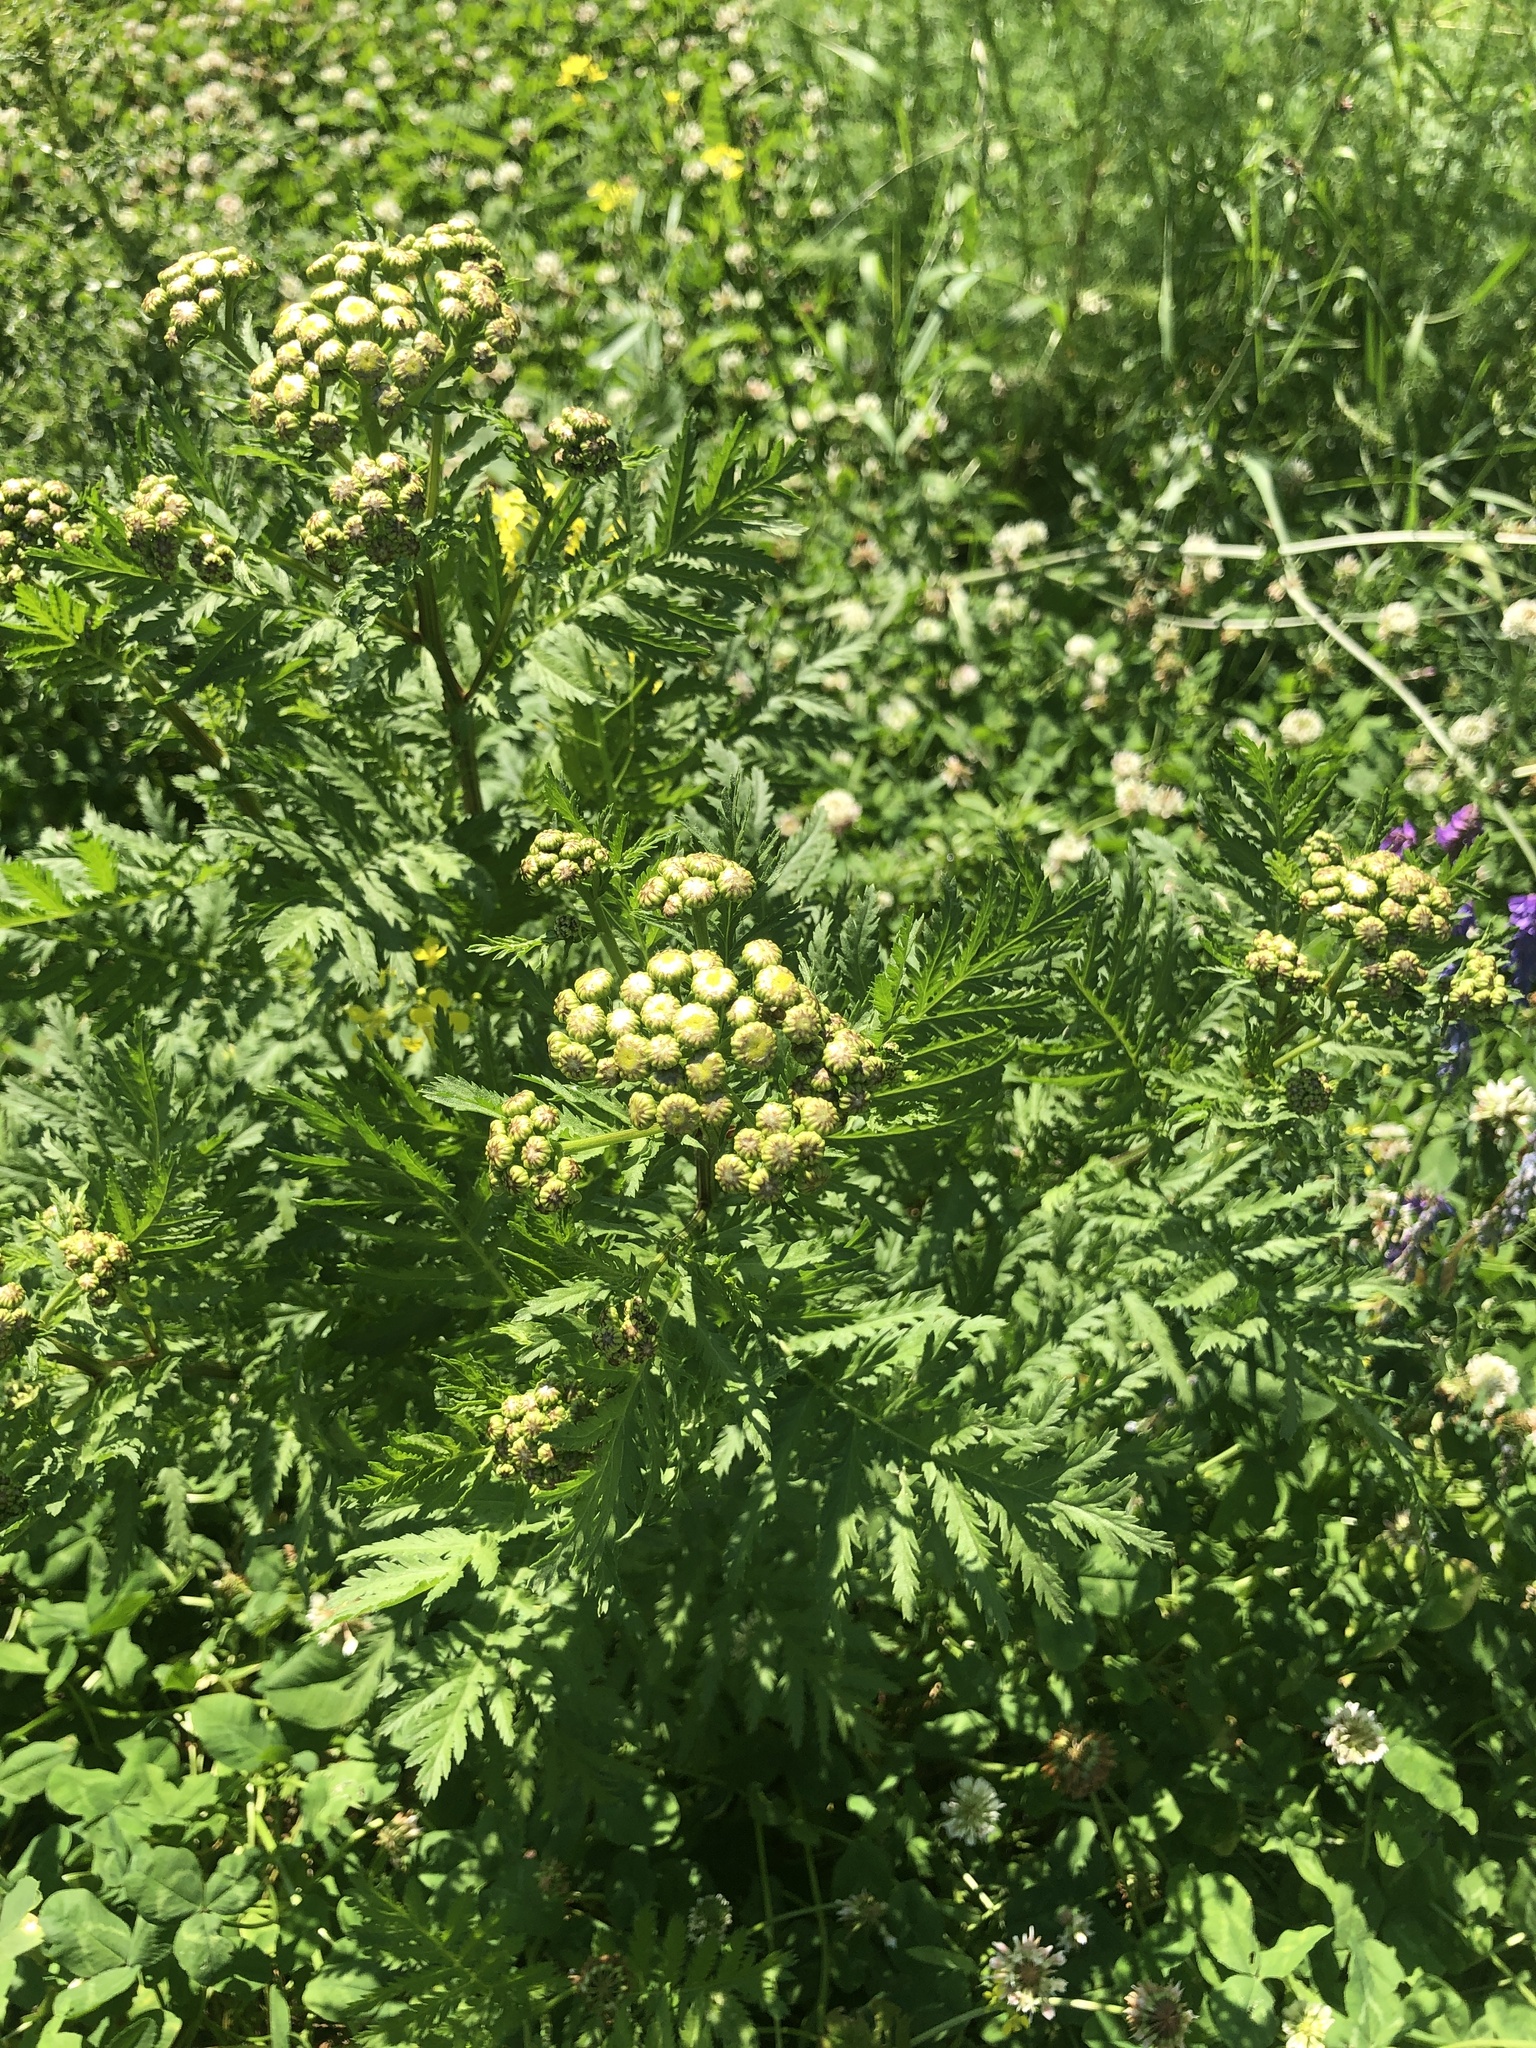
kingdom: Plantae
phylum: Tracheophyta
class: Magnoliopsida
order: Asterales
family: Asteraceae
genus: Tanacetum
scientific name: Tanacetum vulgare
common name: Common tansy
